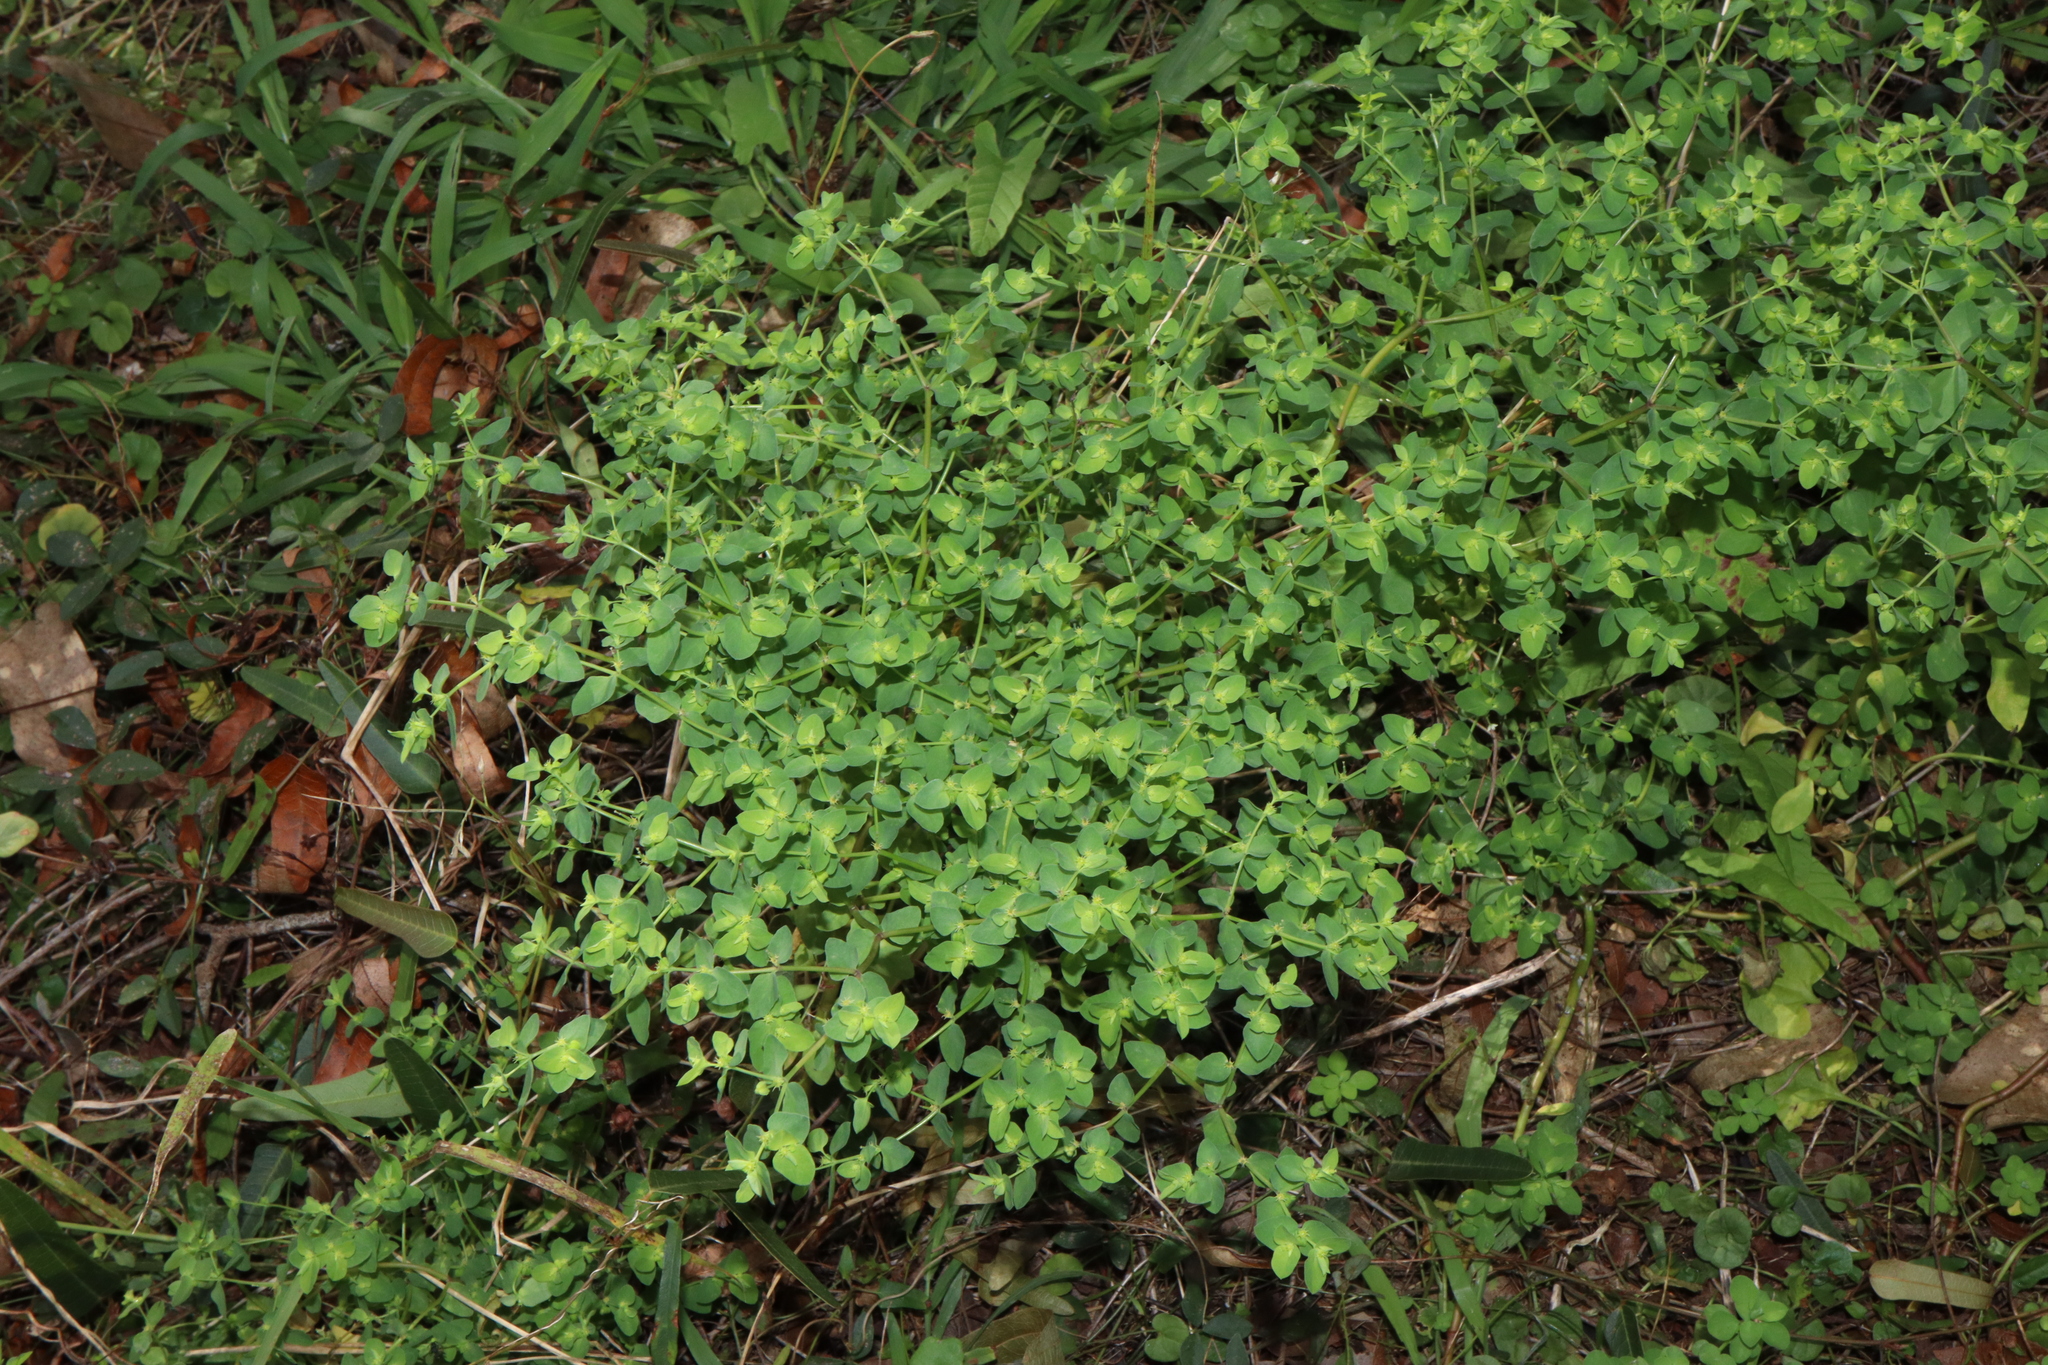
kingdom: Plantae
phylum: Tracheophyta
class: Magnoliopsida
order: Malpighiales
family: Euphorbiaceae
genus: Euphorbia
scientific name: Euphorbia peplus
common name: Petty spurge
